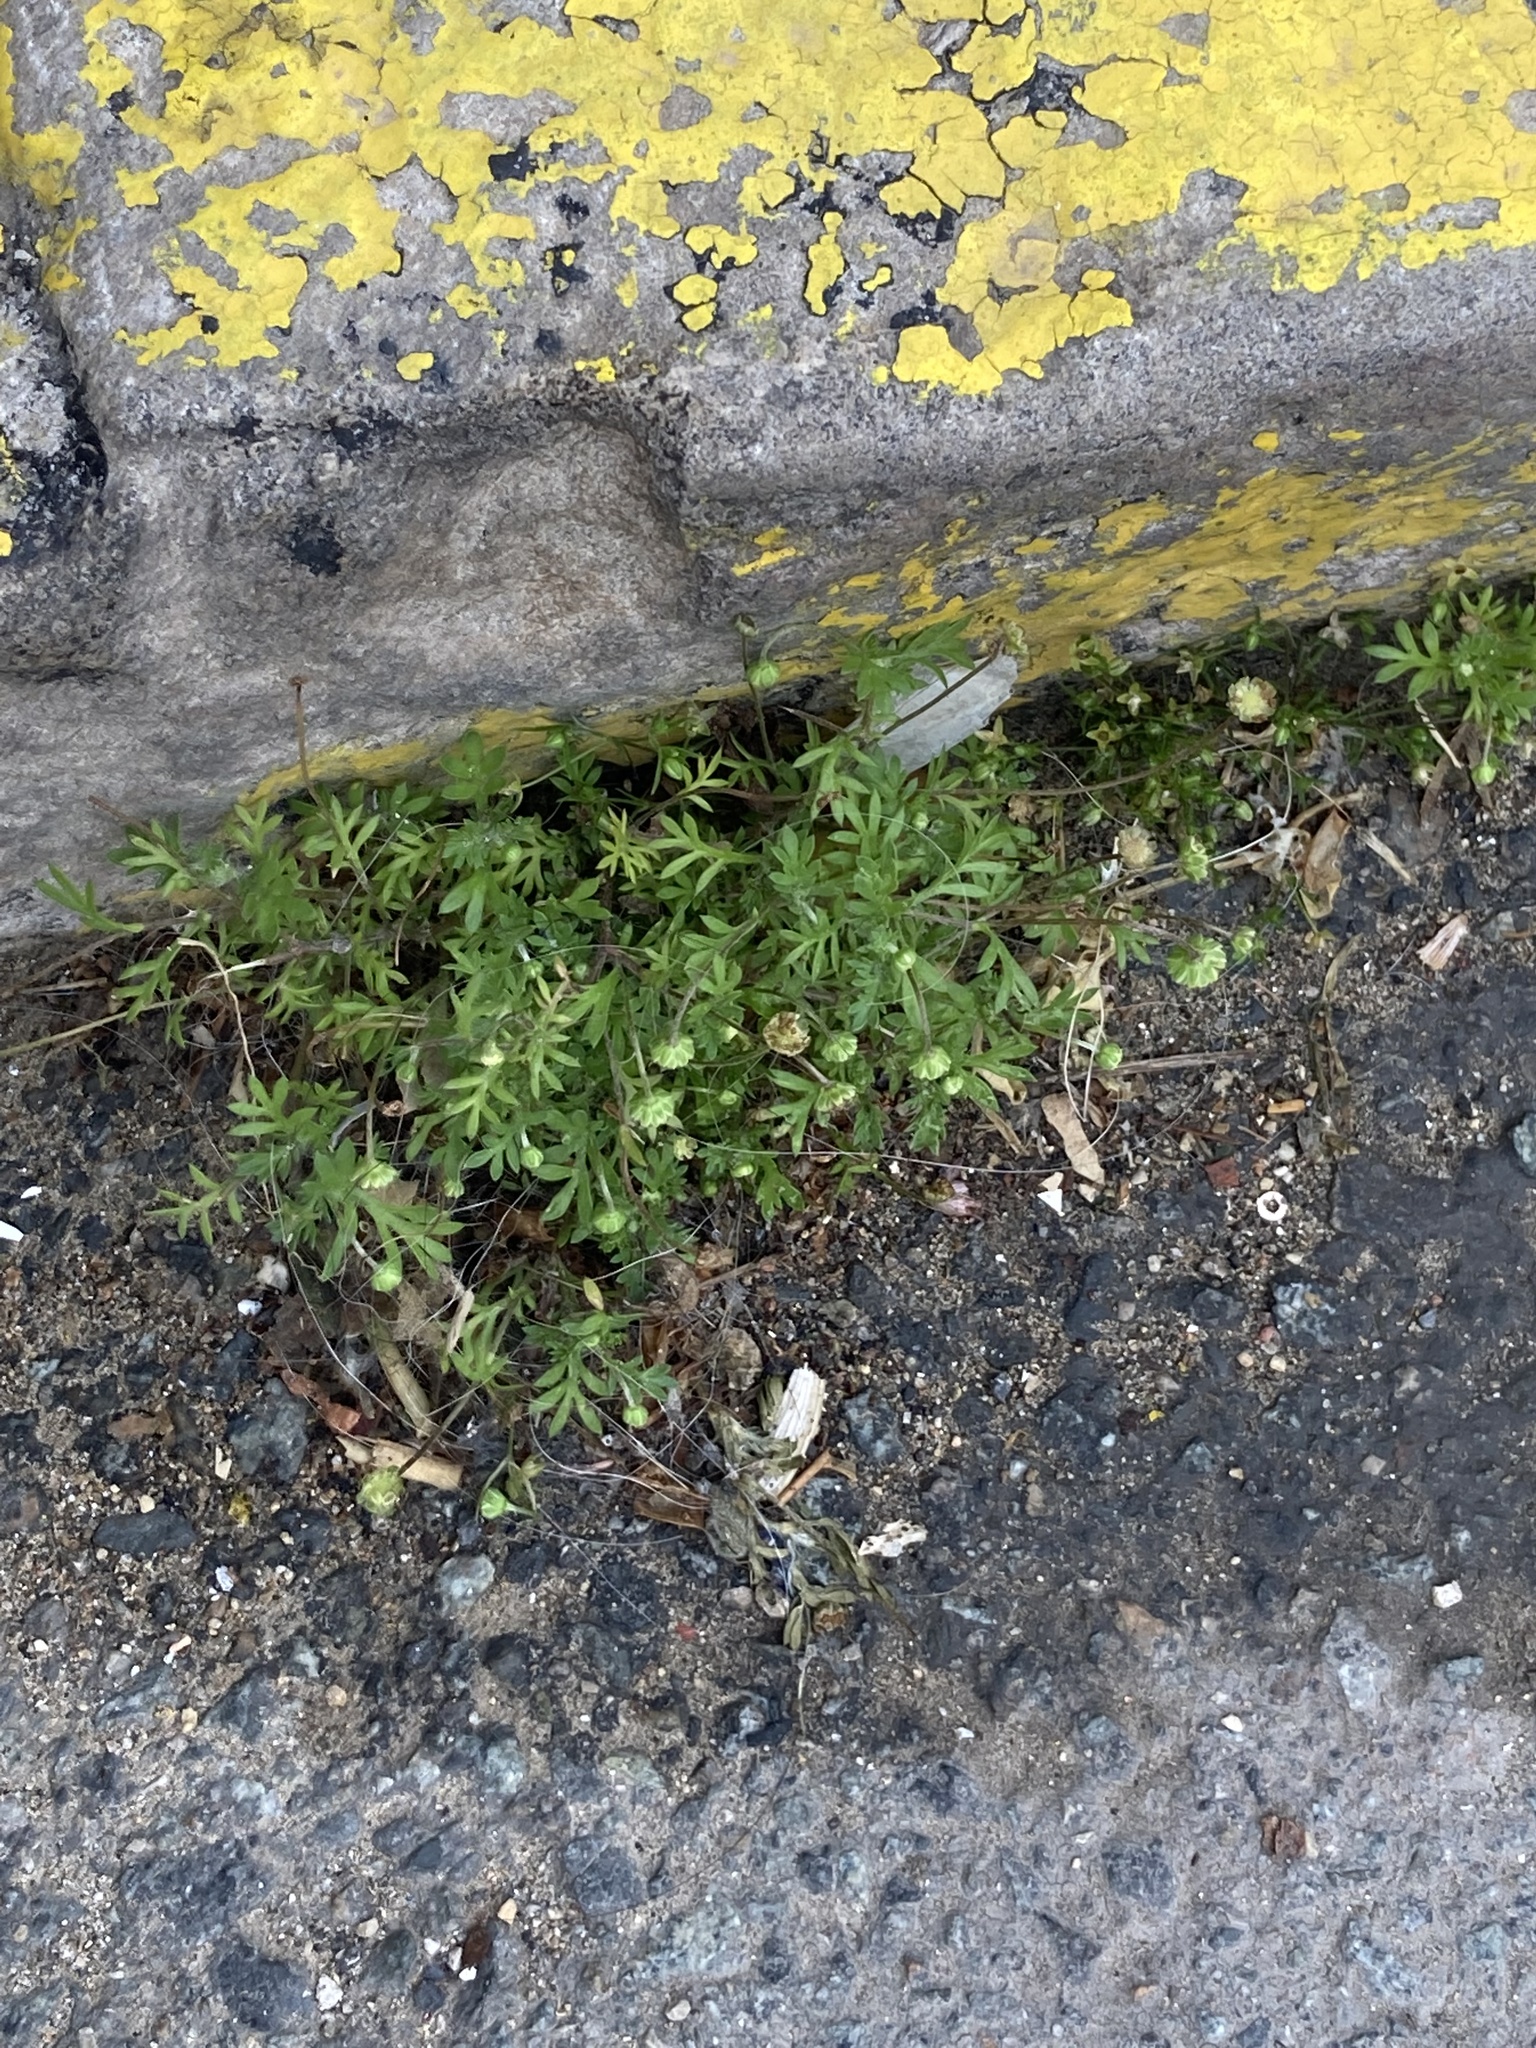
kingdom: Plantae
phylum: Tracheophyta
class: Magnoliopsida
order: Asterales
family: Asteraceae
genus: Cotula
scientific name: Cotula australis
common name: Australian waterbuttons
